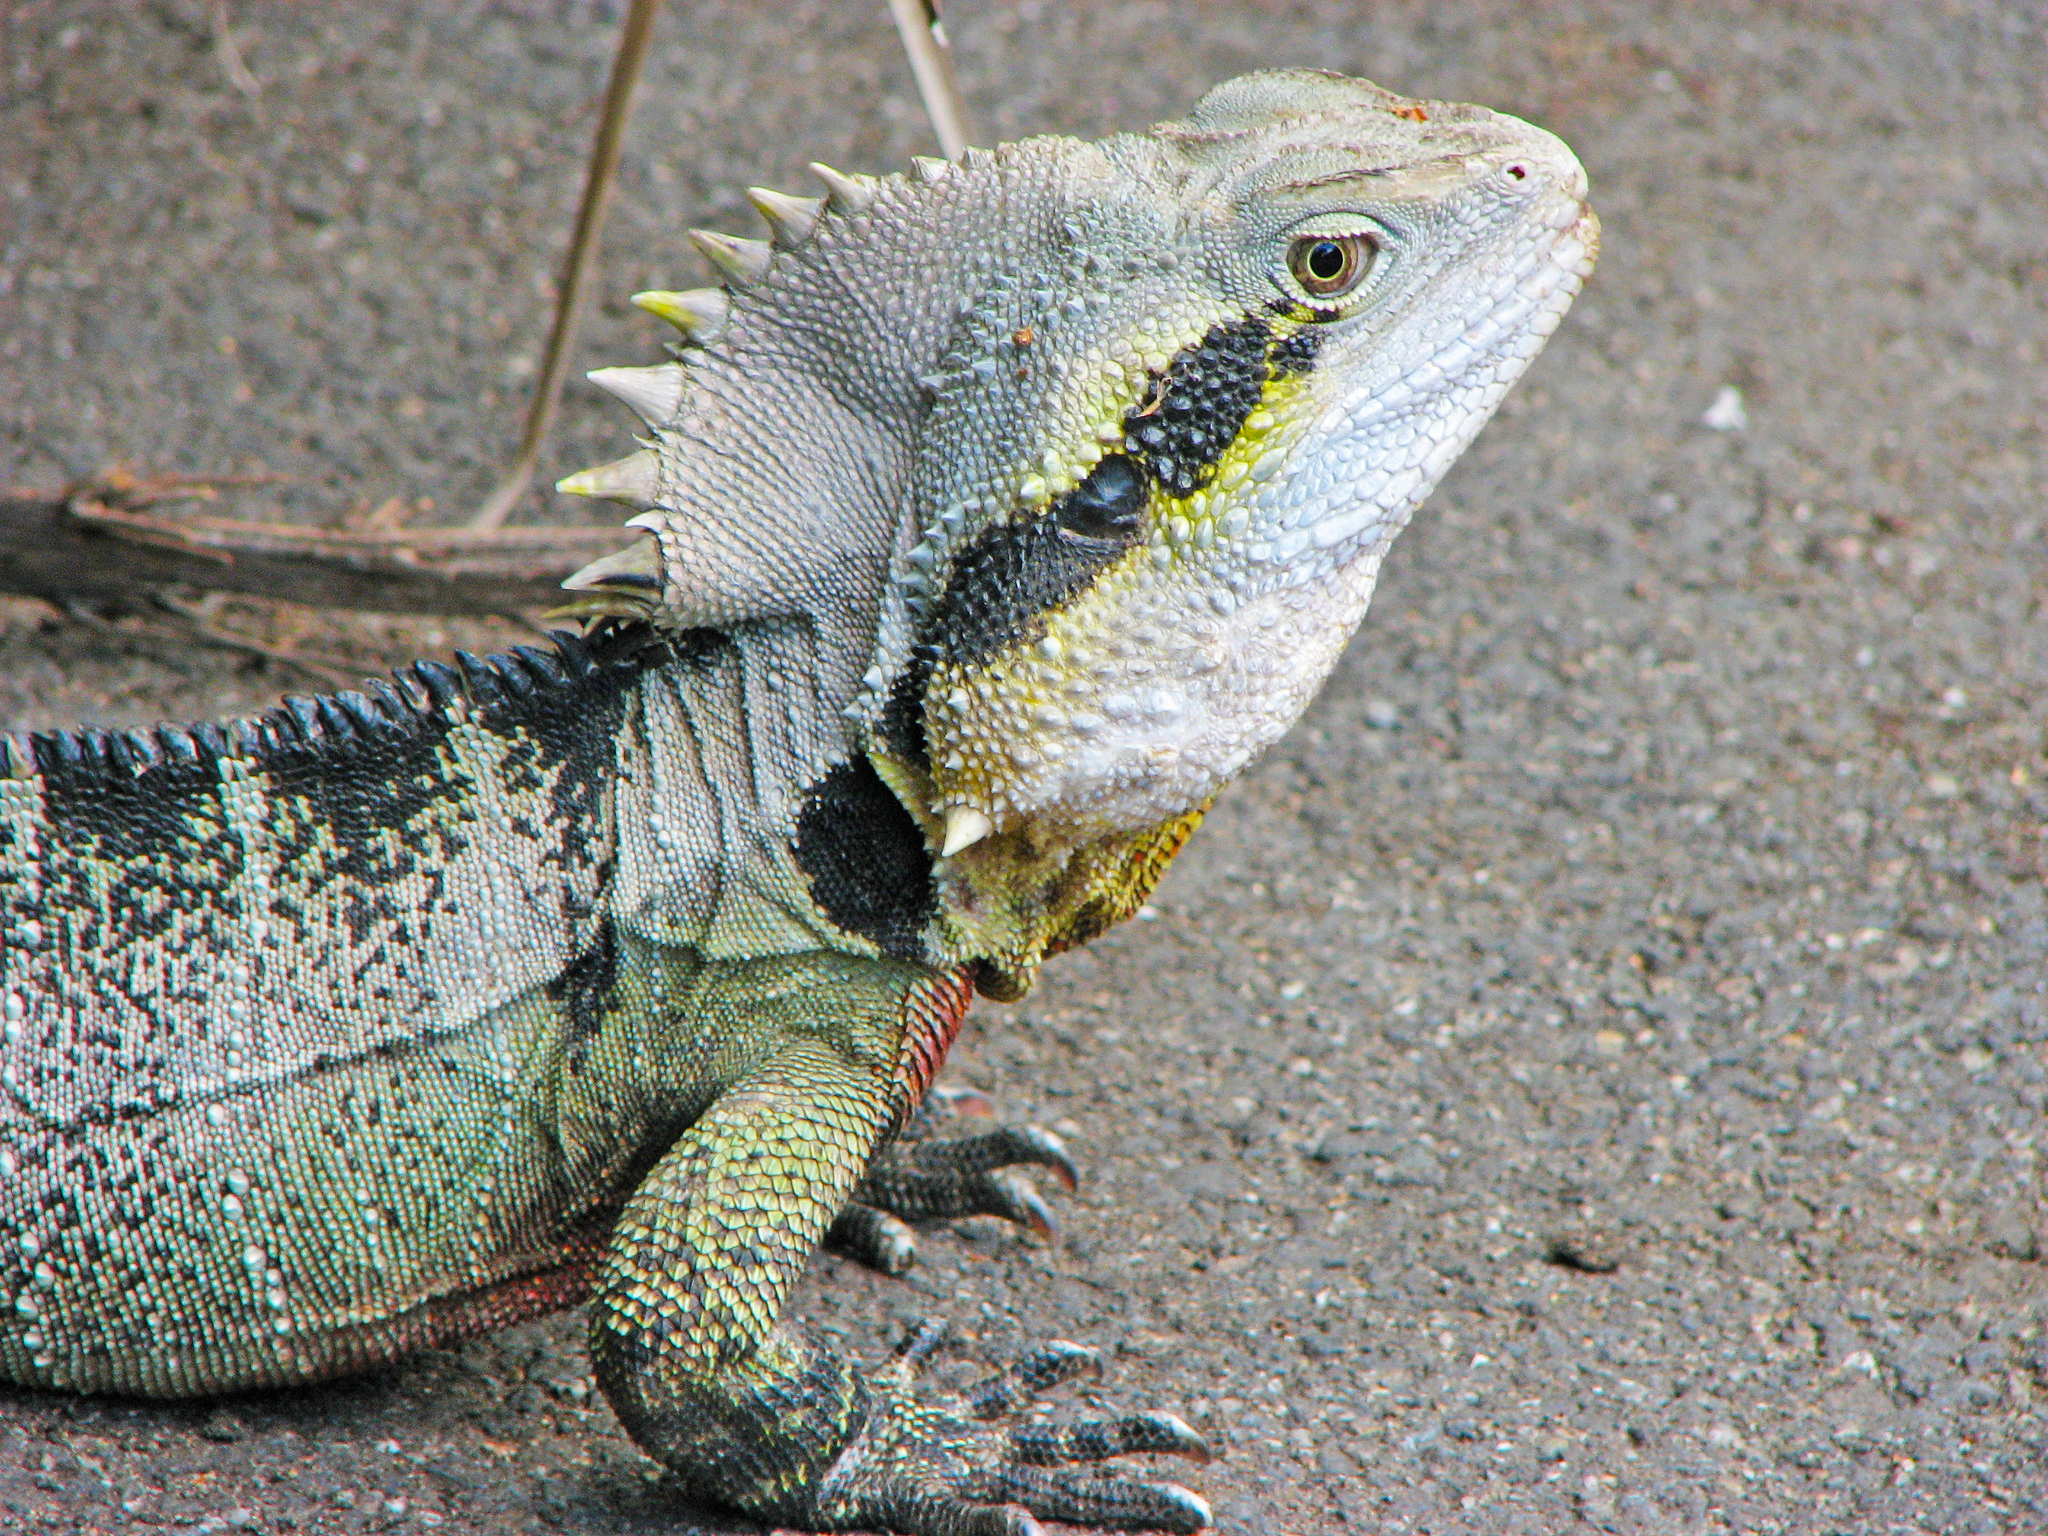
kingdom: Animalia
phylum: Chordata
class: Squamata
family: Agamidae
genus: Intellagama
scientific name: Intellagama lesueurii
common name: Eastern water dragon
